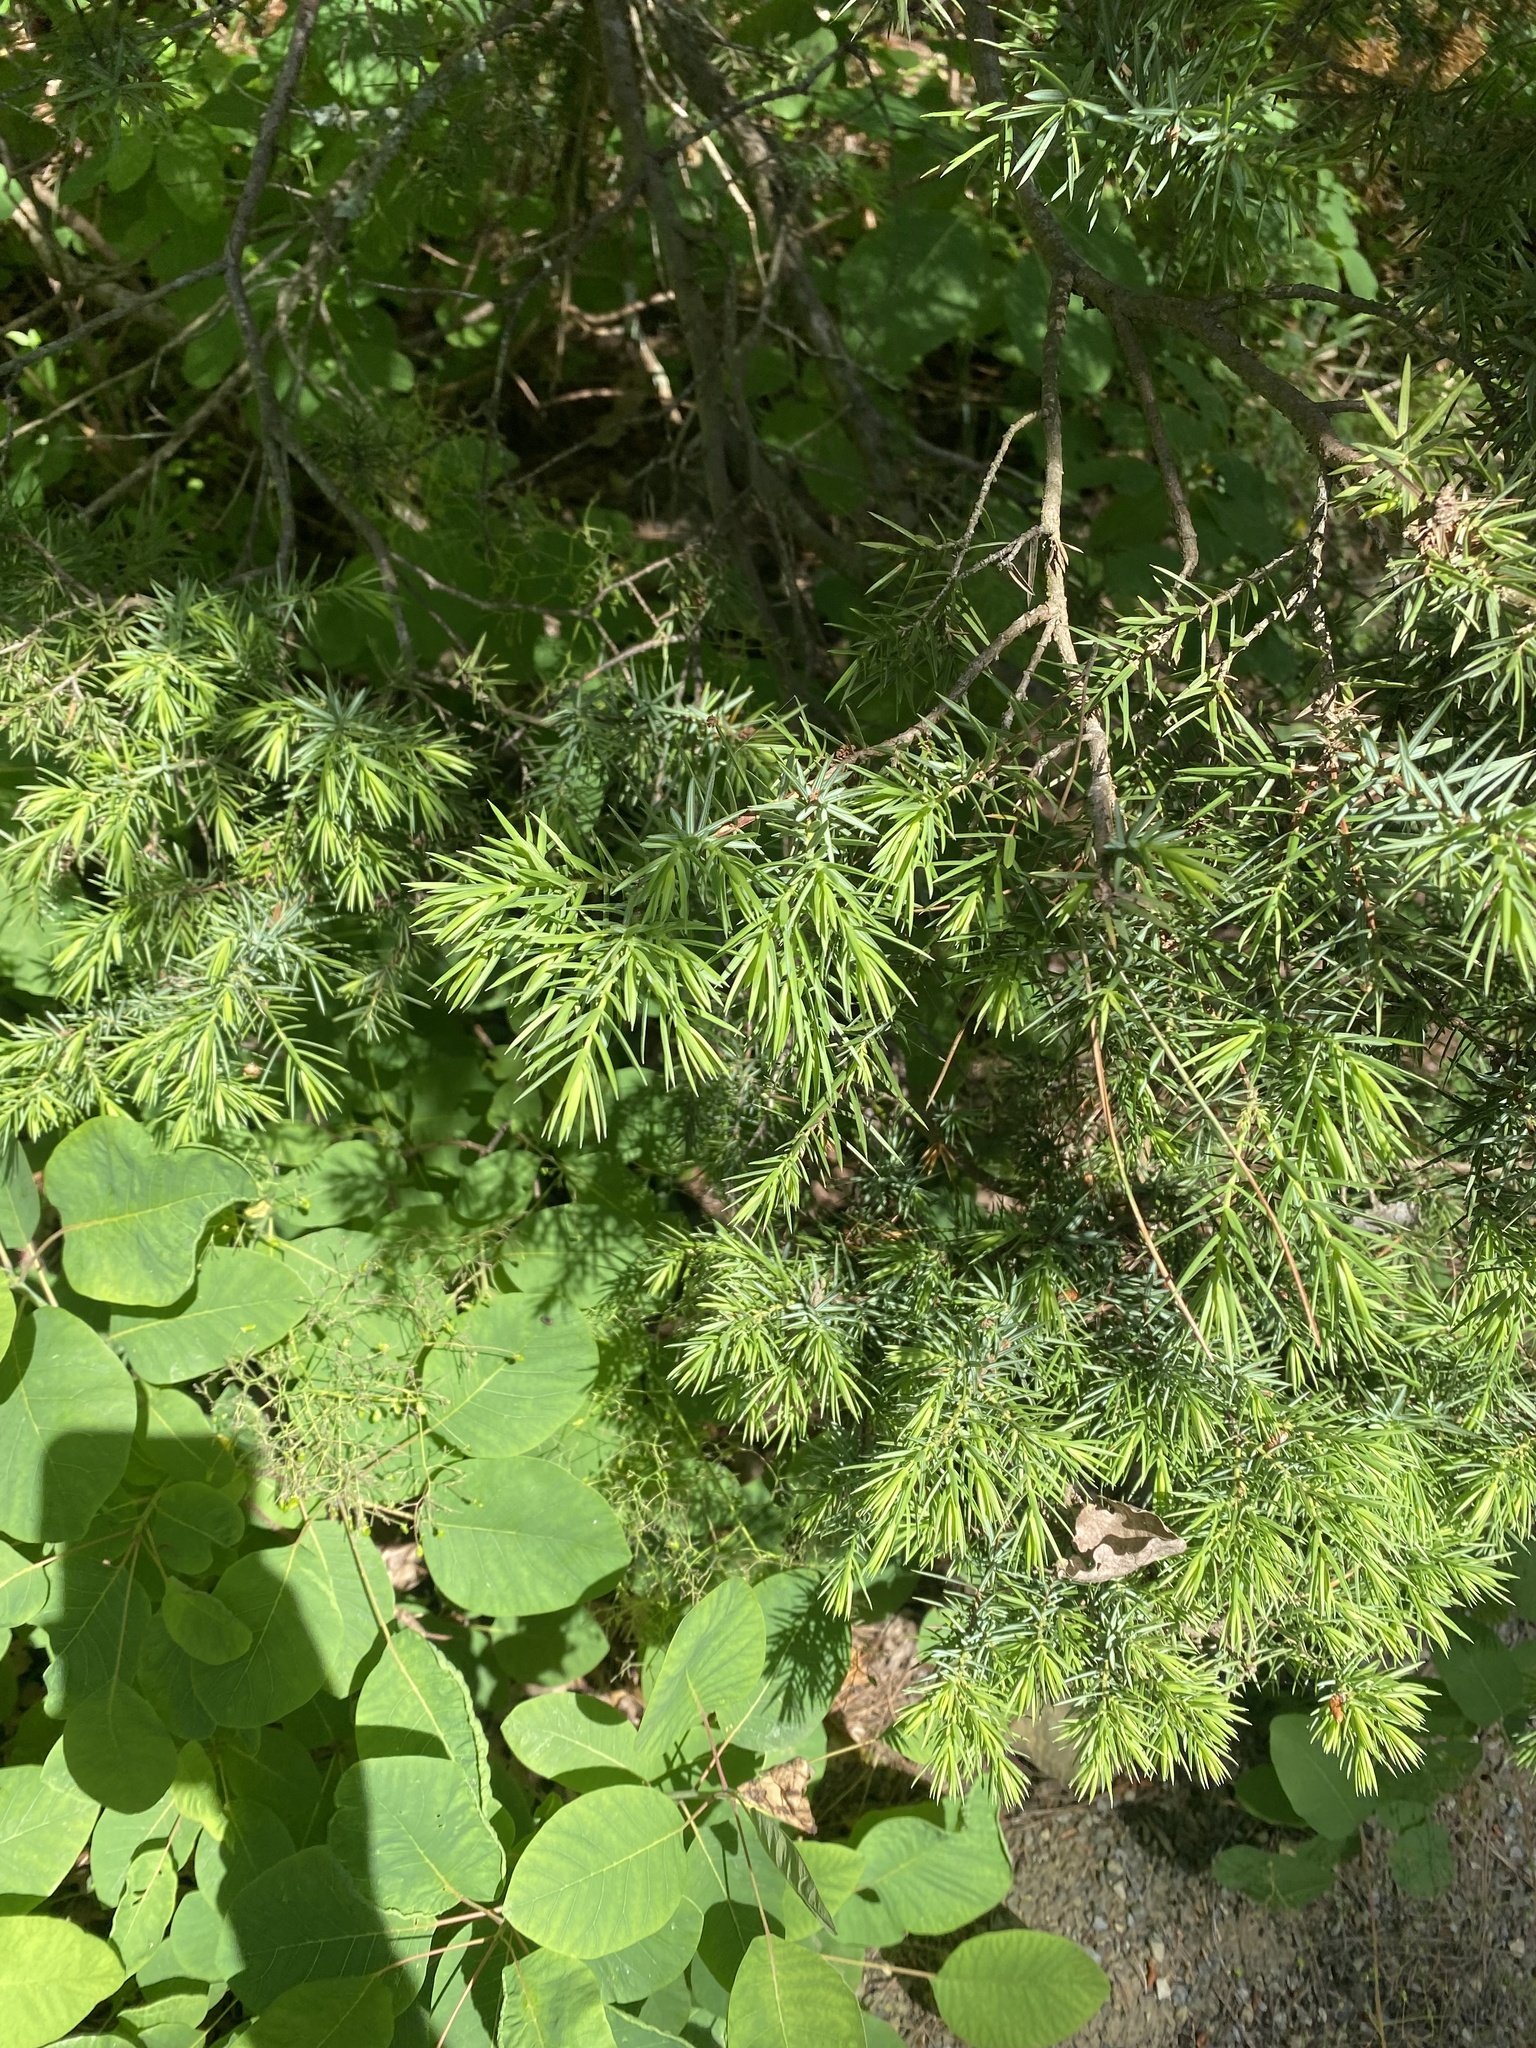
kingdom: Plantae
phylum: Tracheophyta
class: Pinopsida
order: Pinales
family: Cupressaceae
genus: Juniperus
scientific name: Juniperus oxycedrus
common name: Prickly juniper
